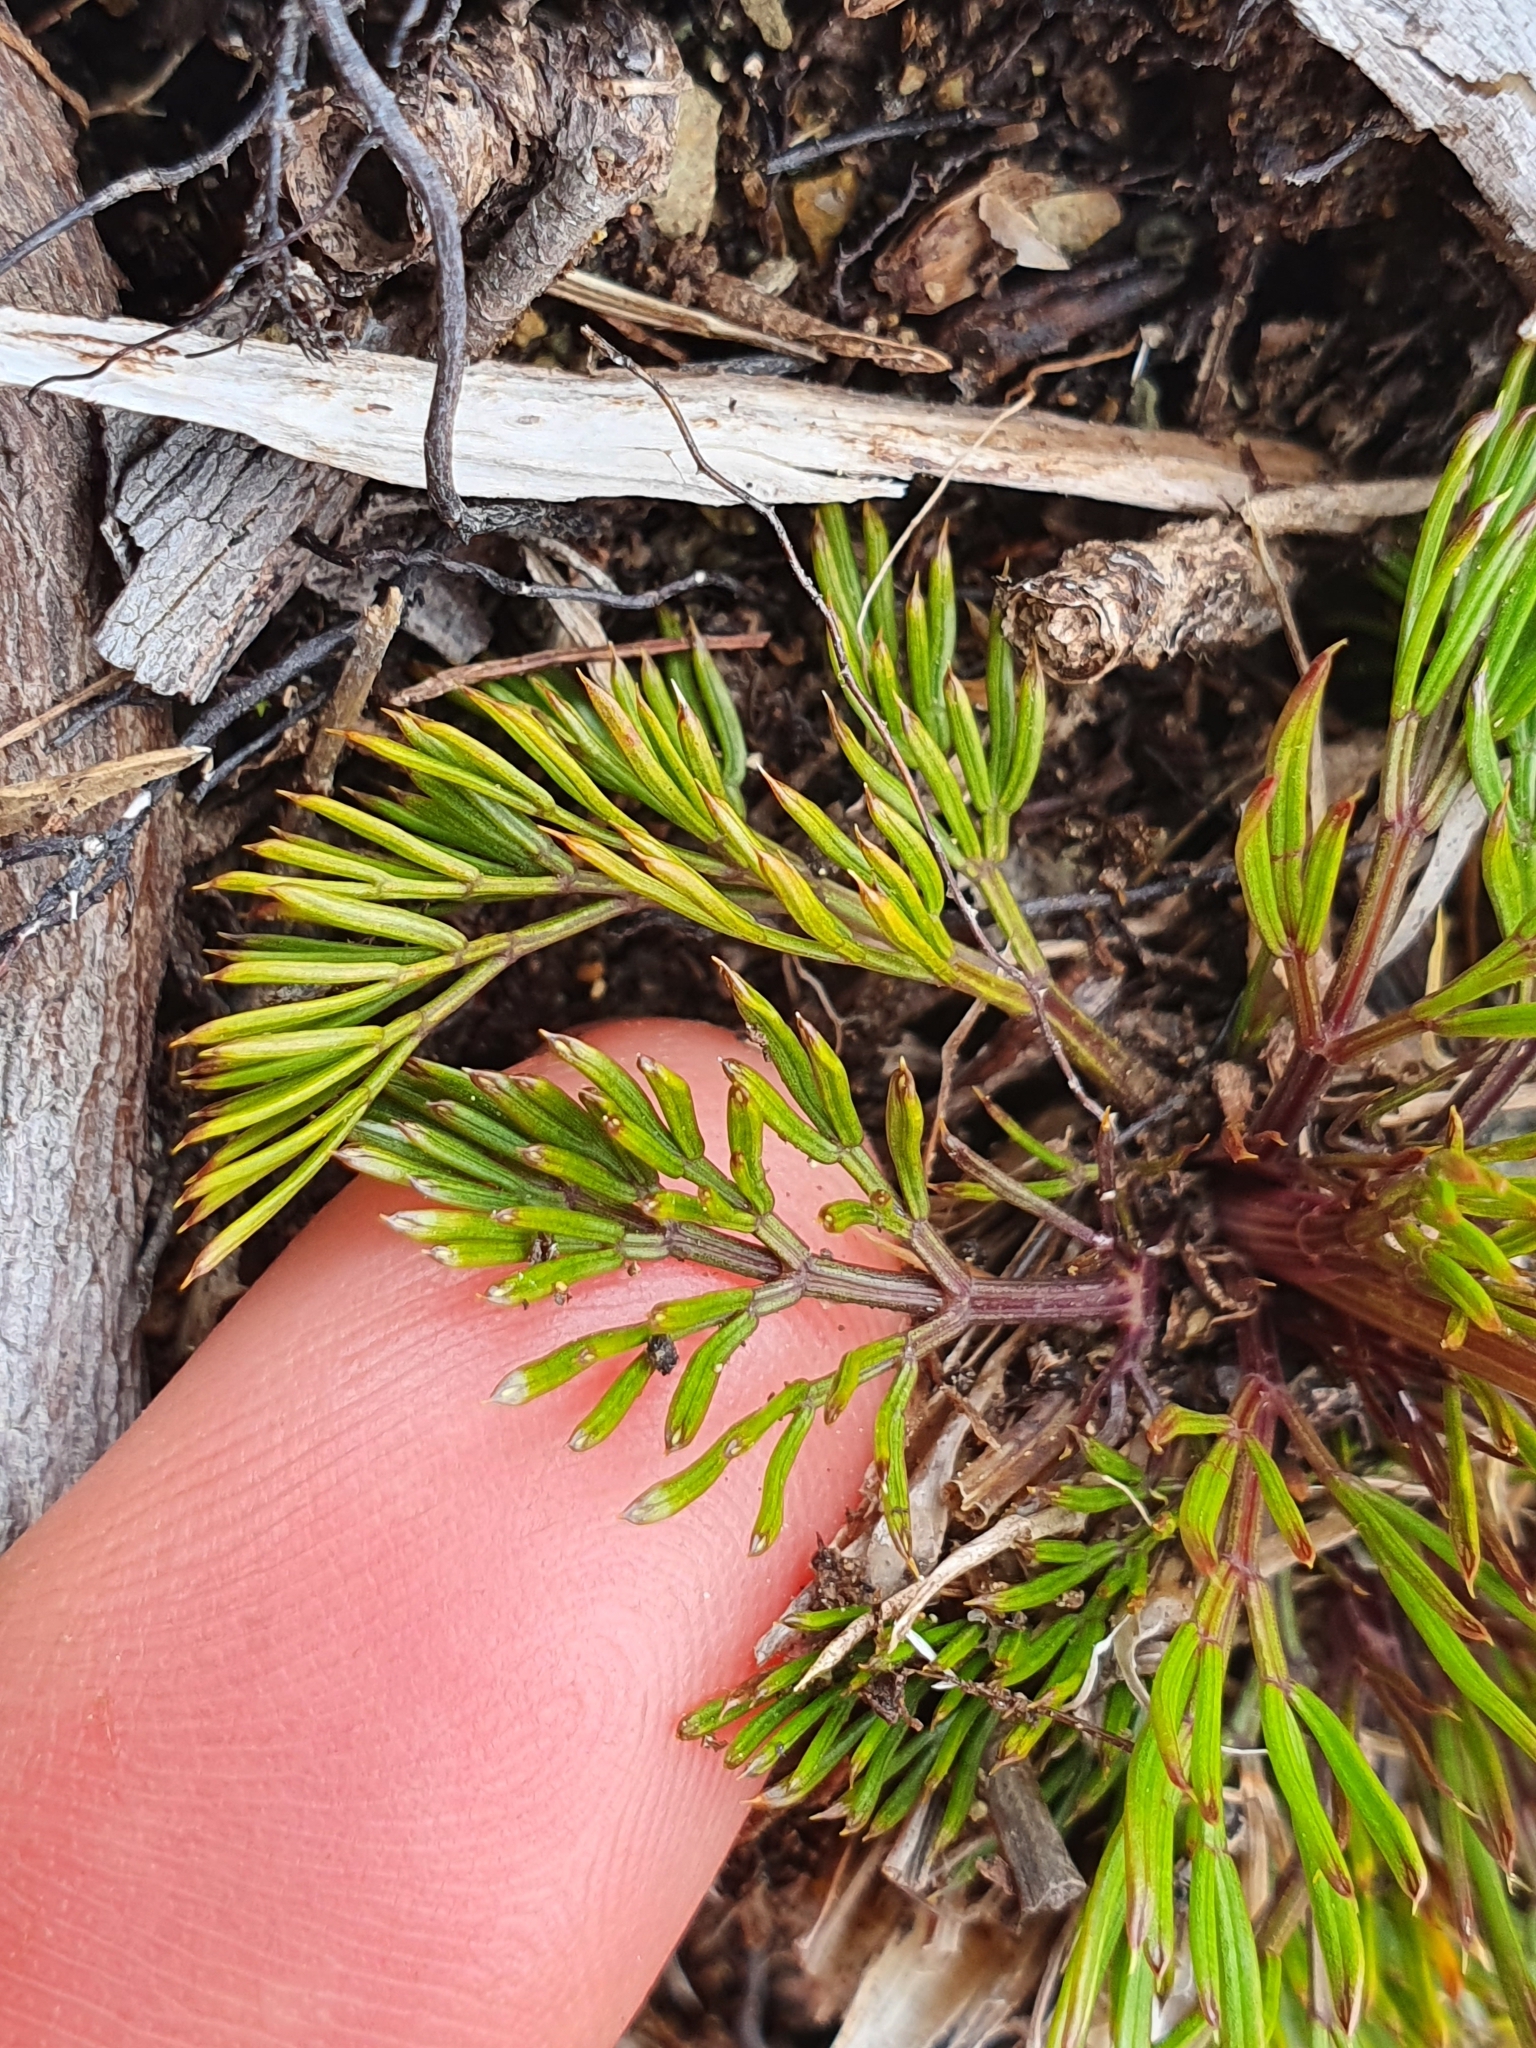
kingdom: Plantae
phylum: Tracheophyta
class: Magnoliopsida
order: Apiales
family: Apiaceae
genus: Aciphylla
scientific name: Aciphylla polita
